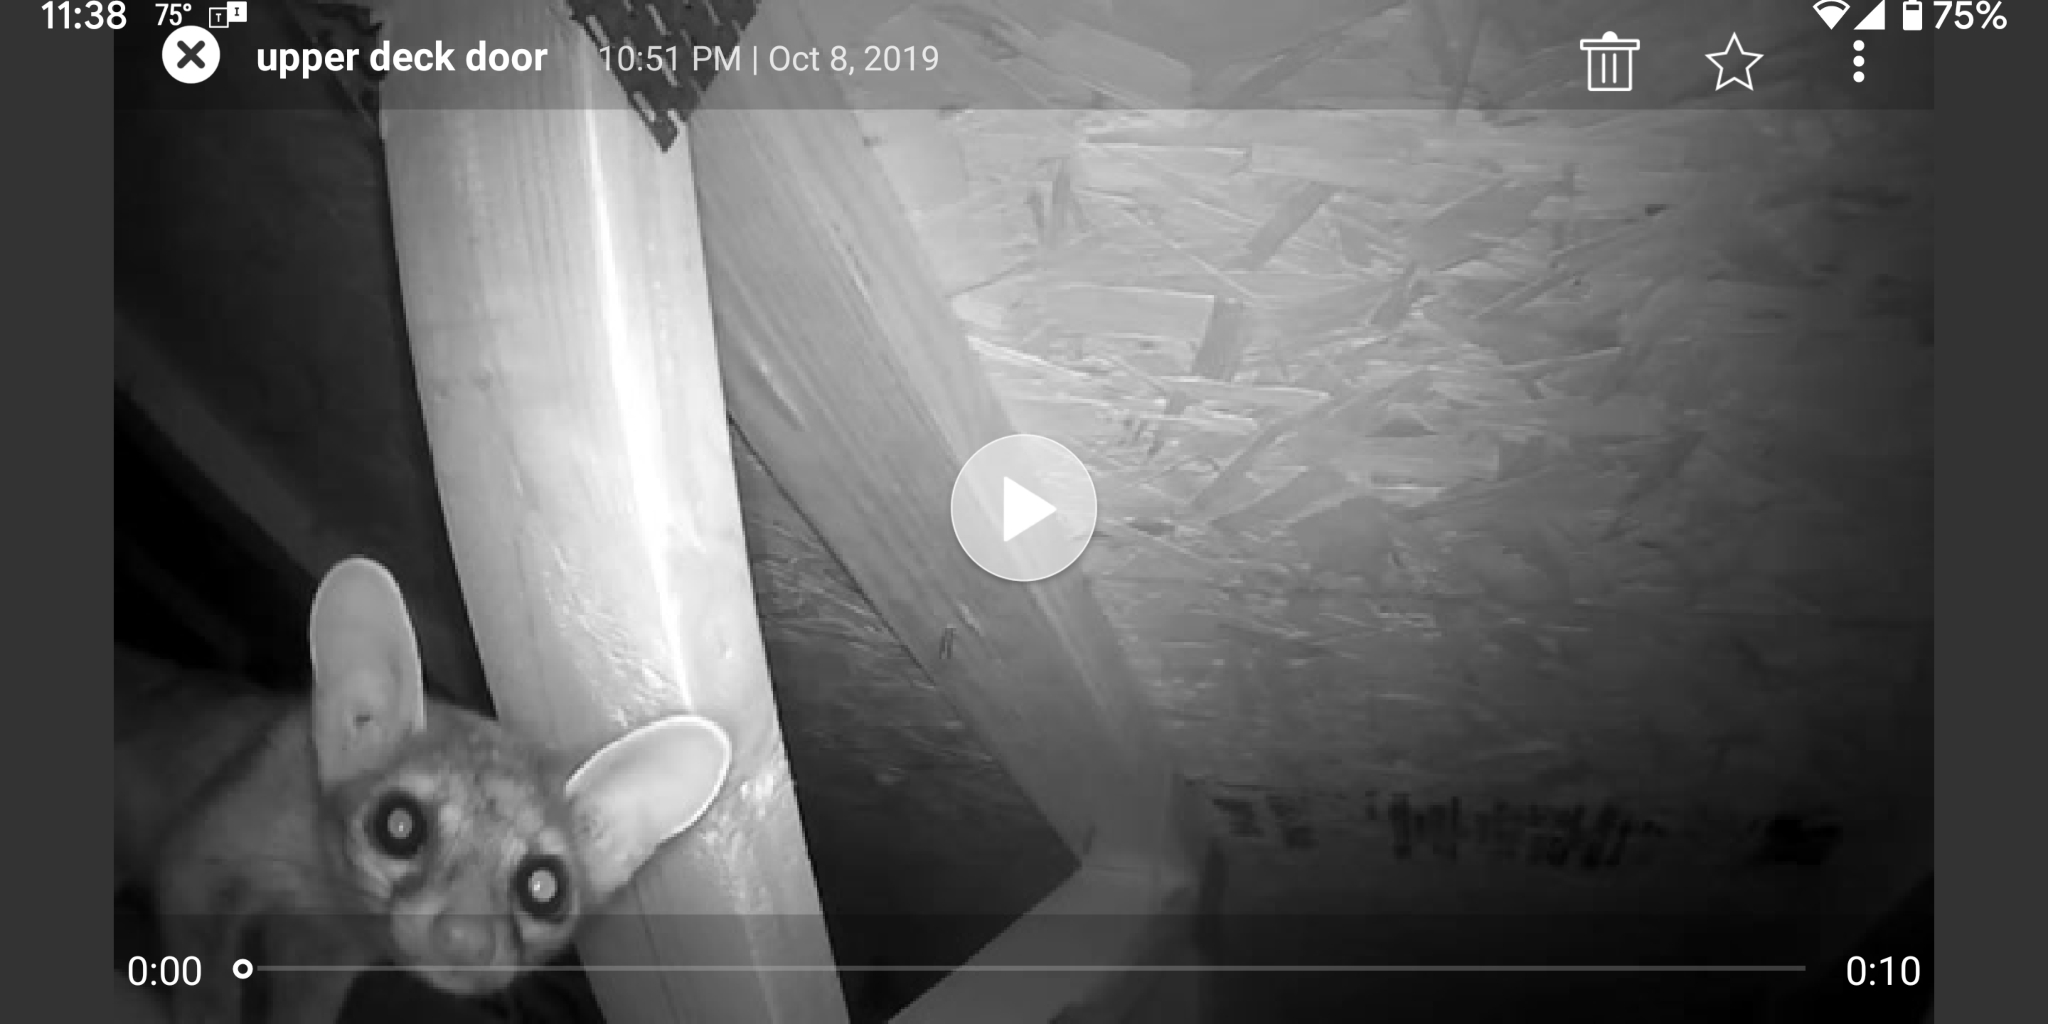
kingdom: Animalia
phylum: Chordata
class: Mammalia
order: Carnivora
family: Procyonidae
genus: Bassariscus
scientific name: Bassariscus astutus
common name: Ringtail
